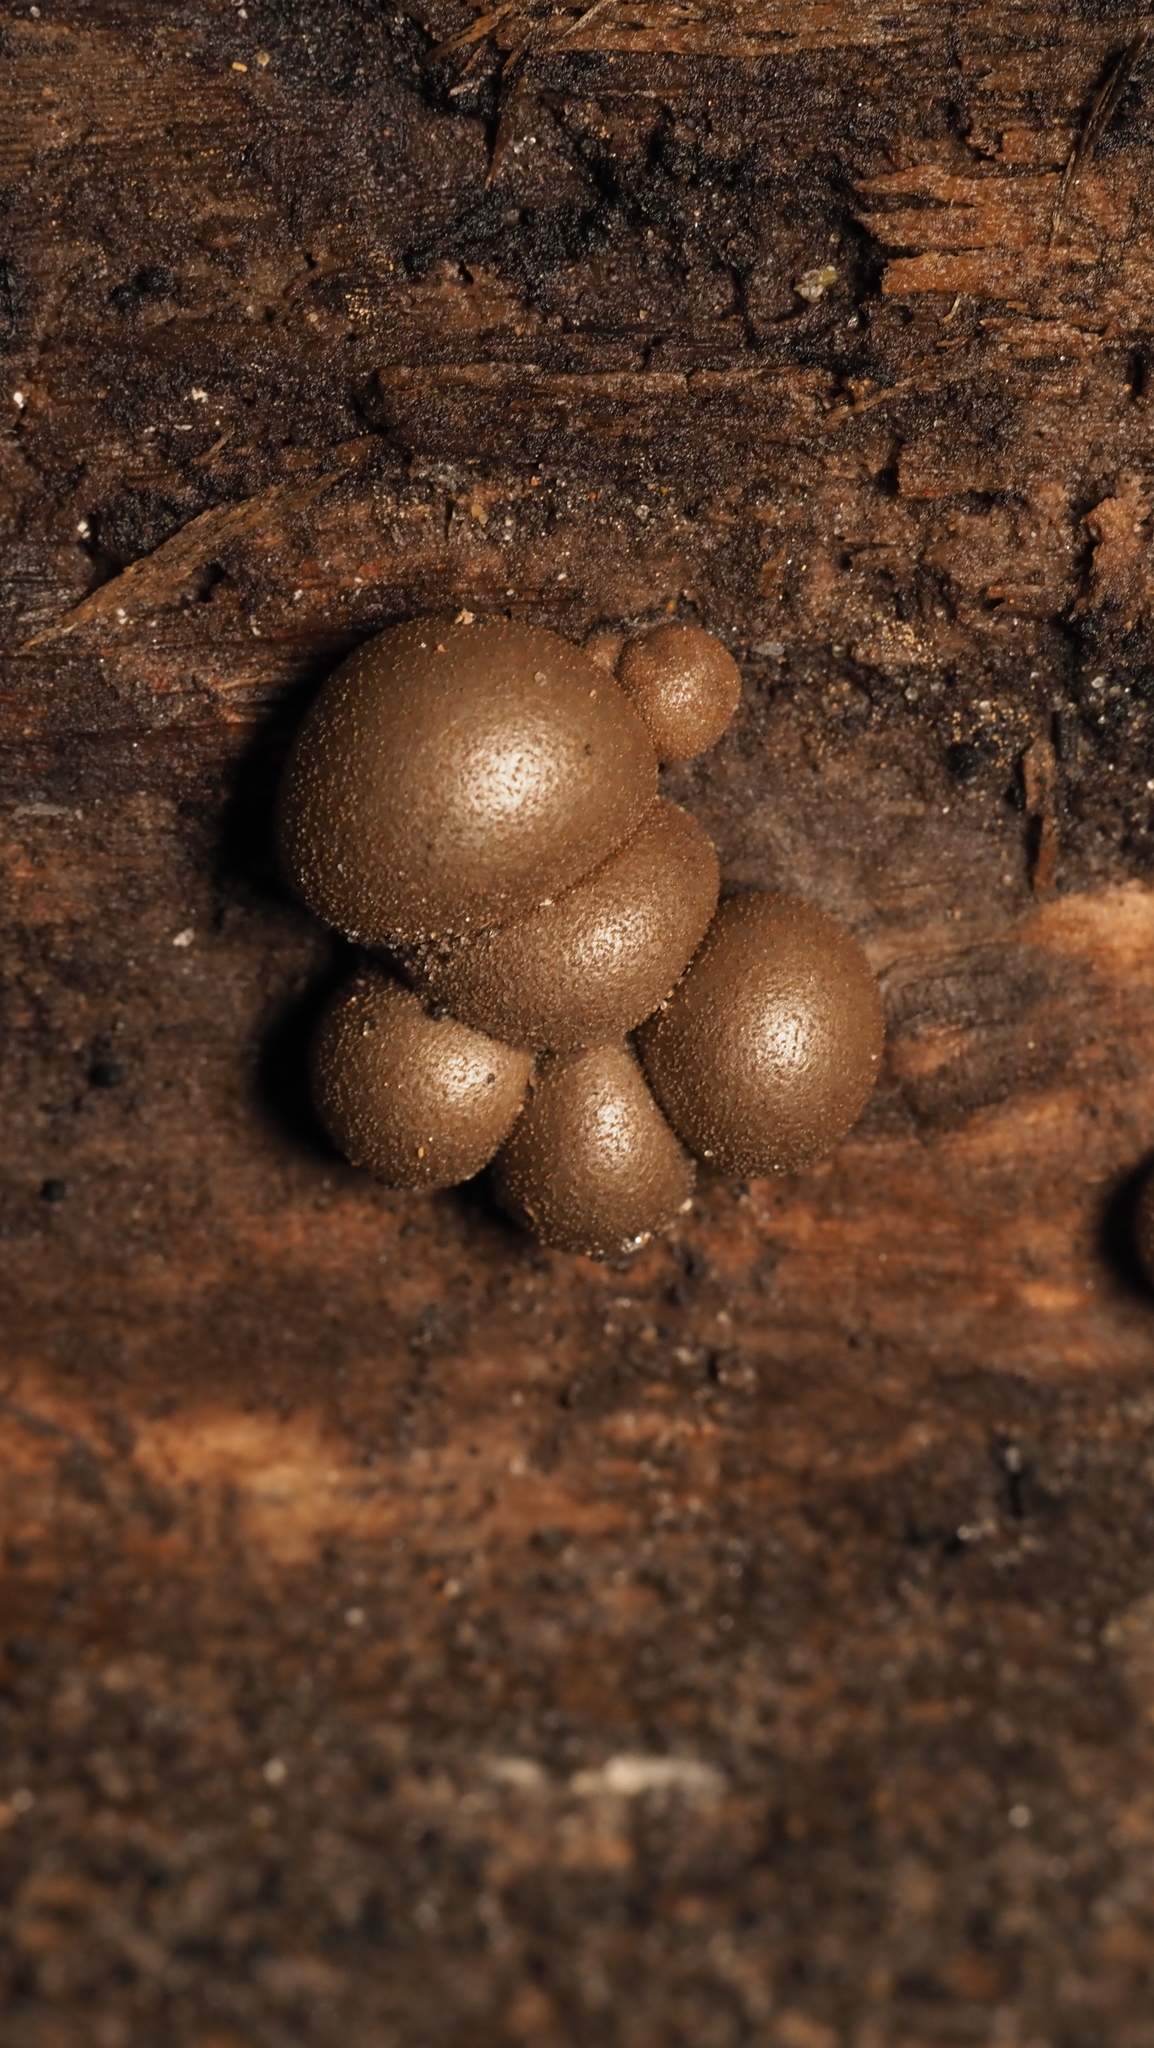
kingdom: Protozoa
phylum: Mycetozoa
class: Myxomycetes
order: Cribrariales
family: Tubiferaceae
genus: Lycogala
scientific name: Lycogala epidendrum
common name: Wolf's milk
